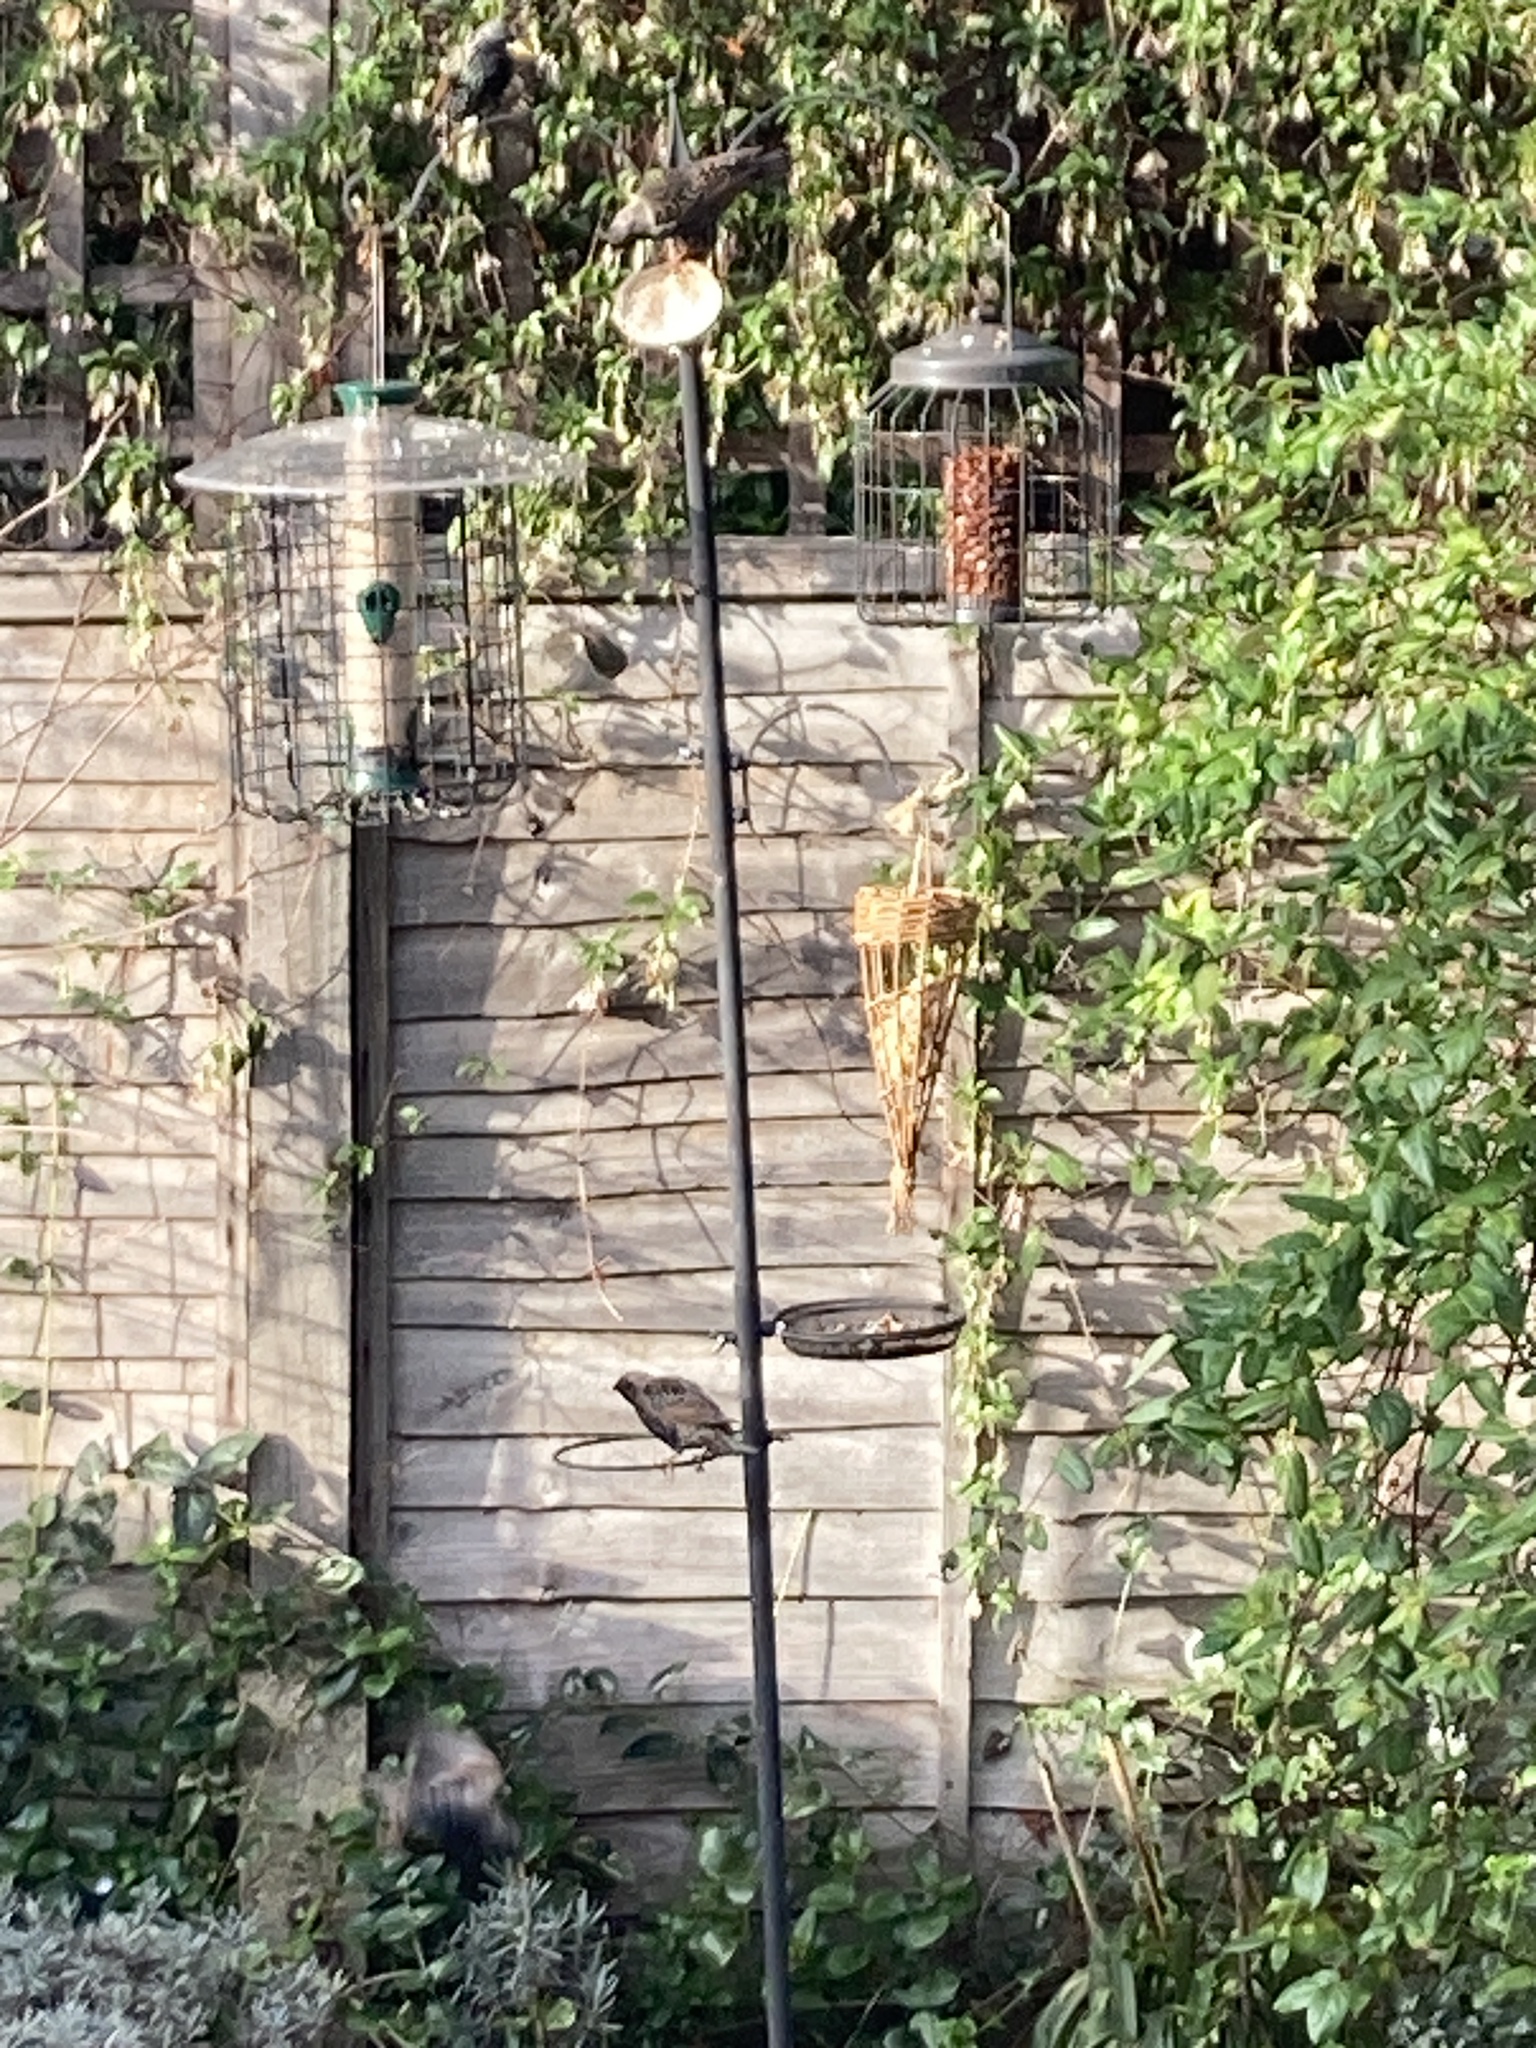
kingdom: Animalia
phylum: Chordata
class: Aves
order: Passeriformes
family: Sturnidae
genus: Sturnus
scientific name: Sturnus vulgaris
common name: Common starling
